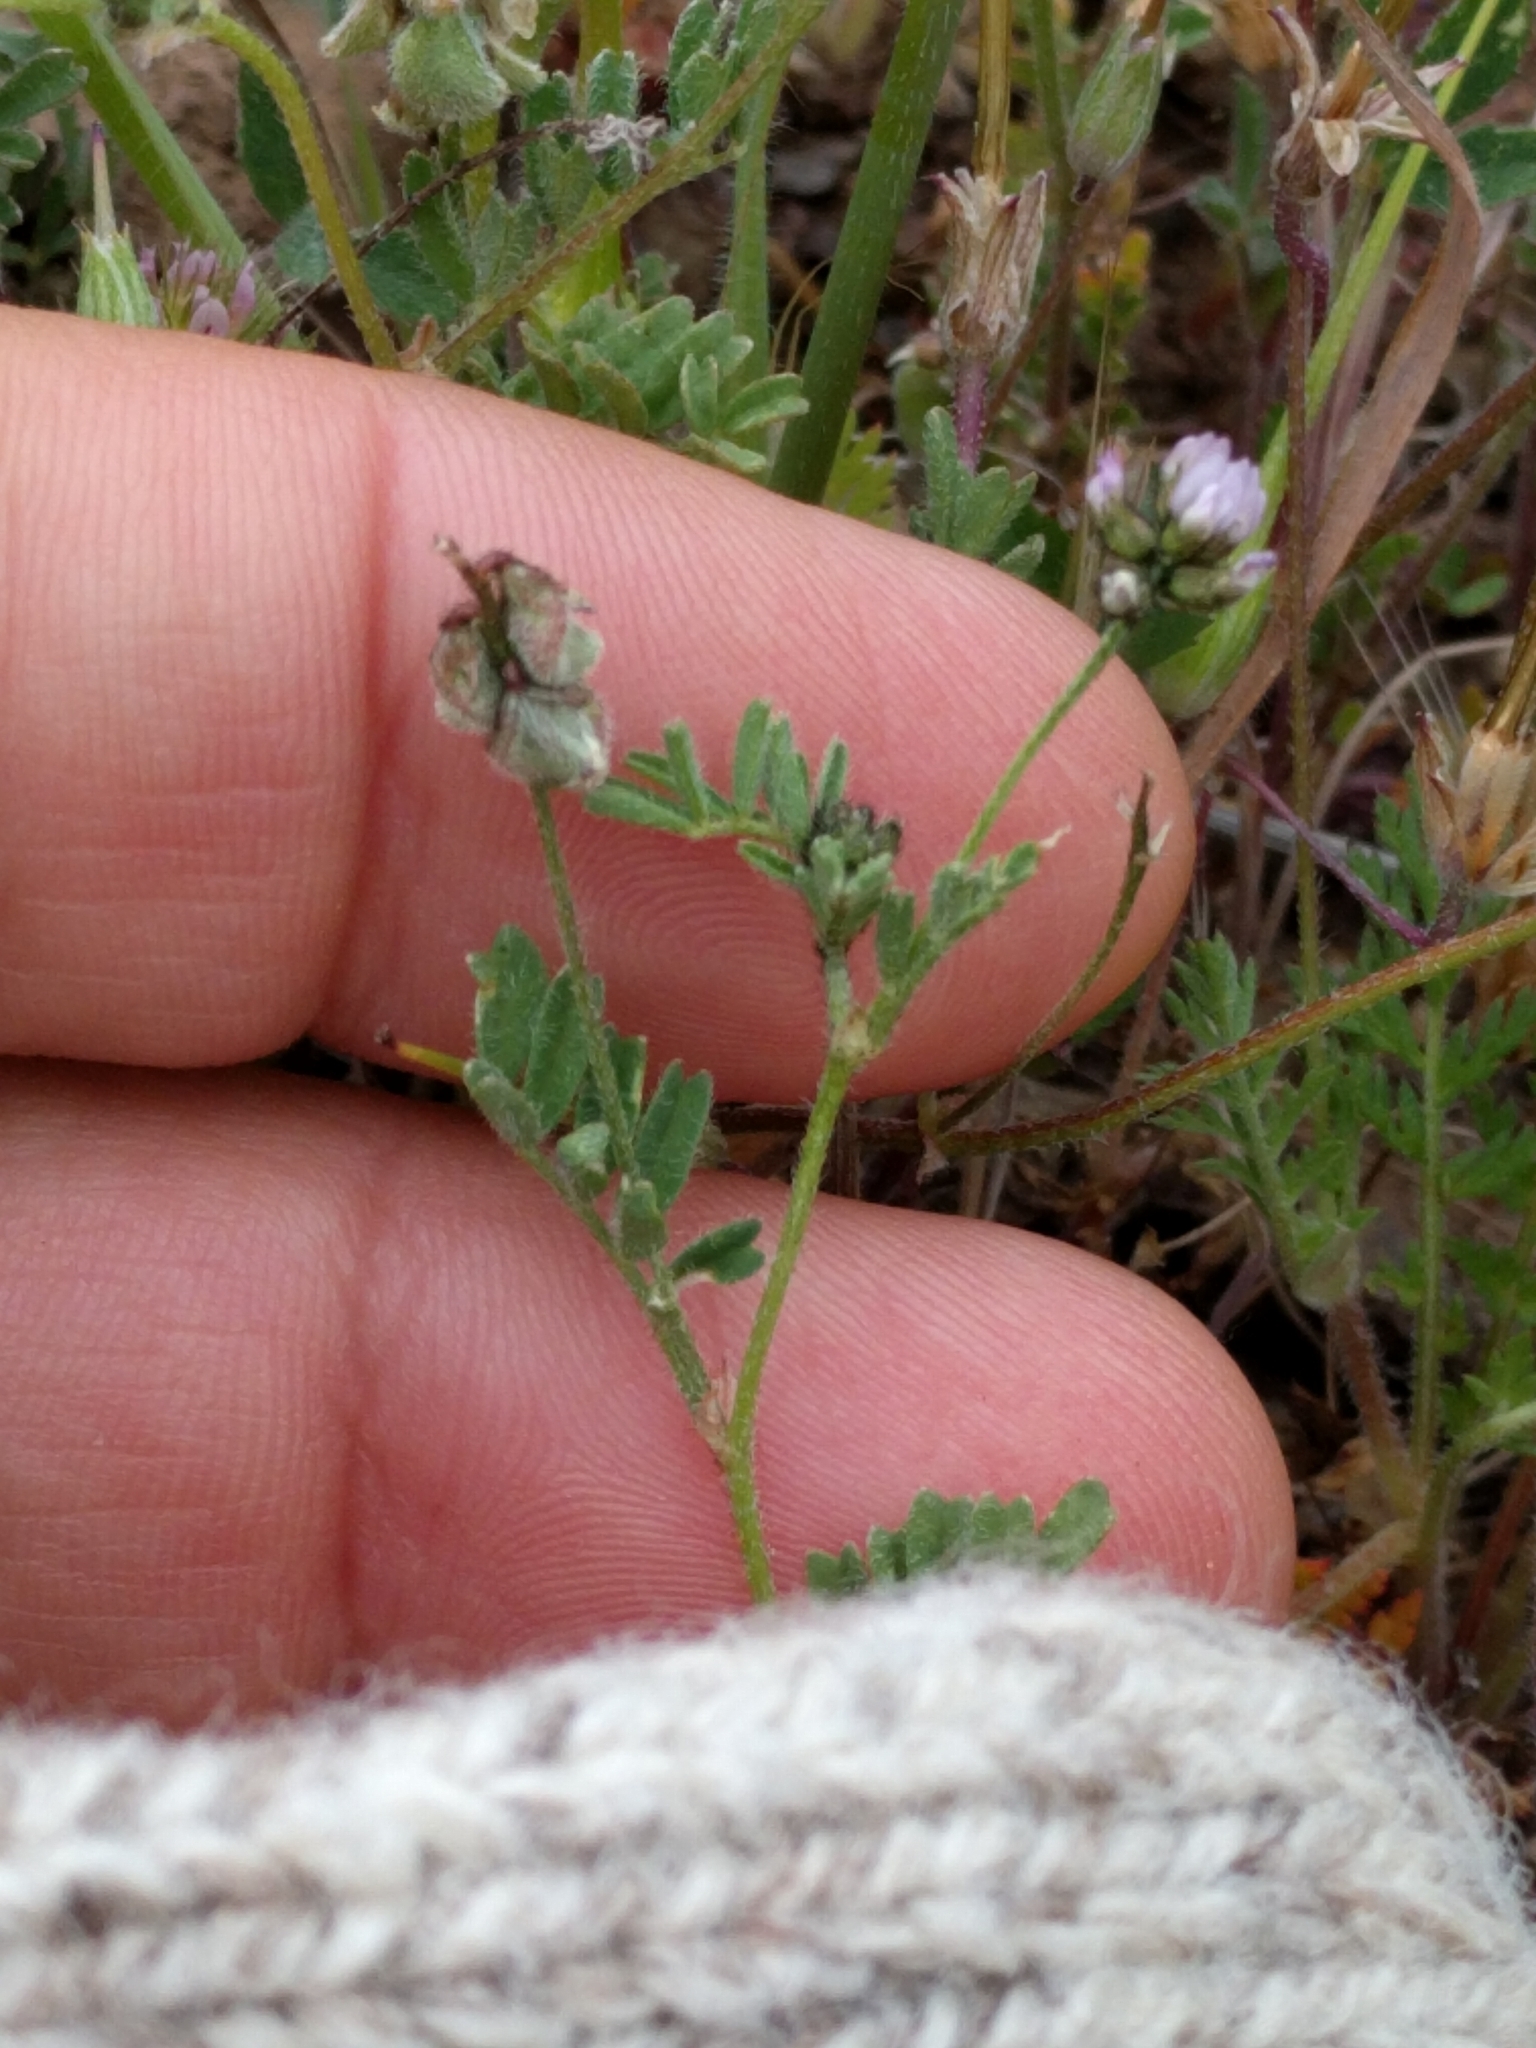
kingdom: Plantae
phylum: Tracheophyta
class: Magnoliopsida
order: Fabales
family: Fabaceae
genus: Astragalus
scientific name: Astragalus gambelianus
